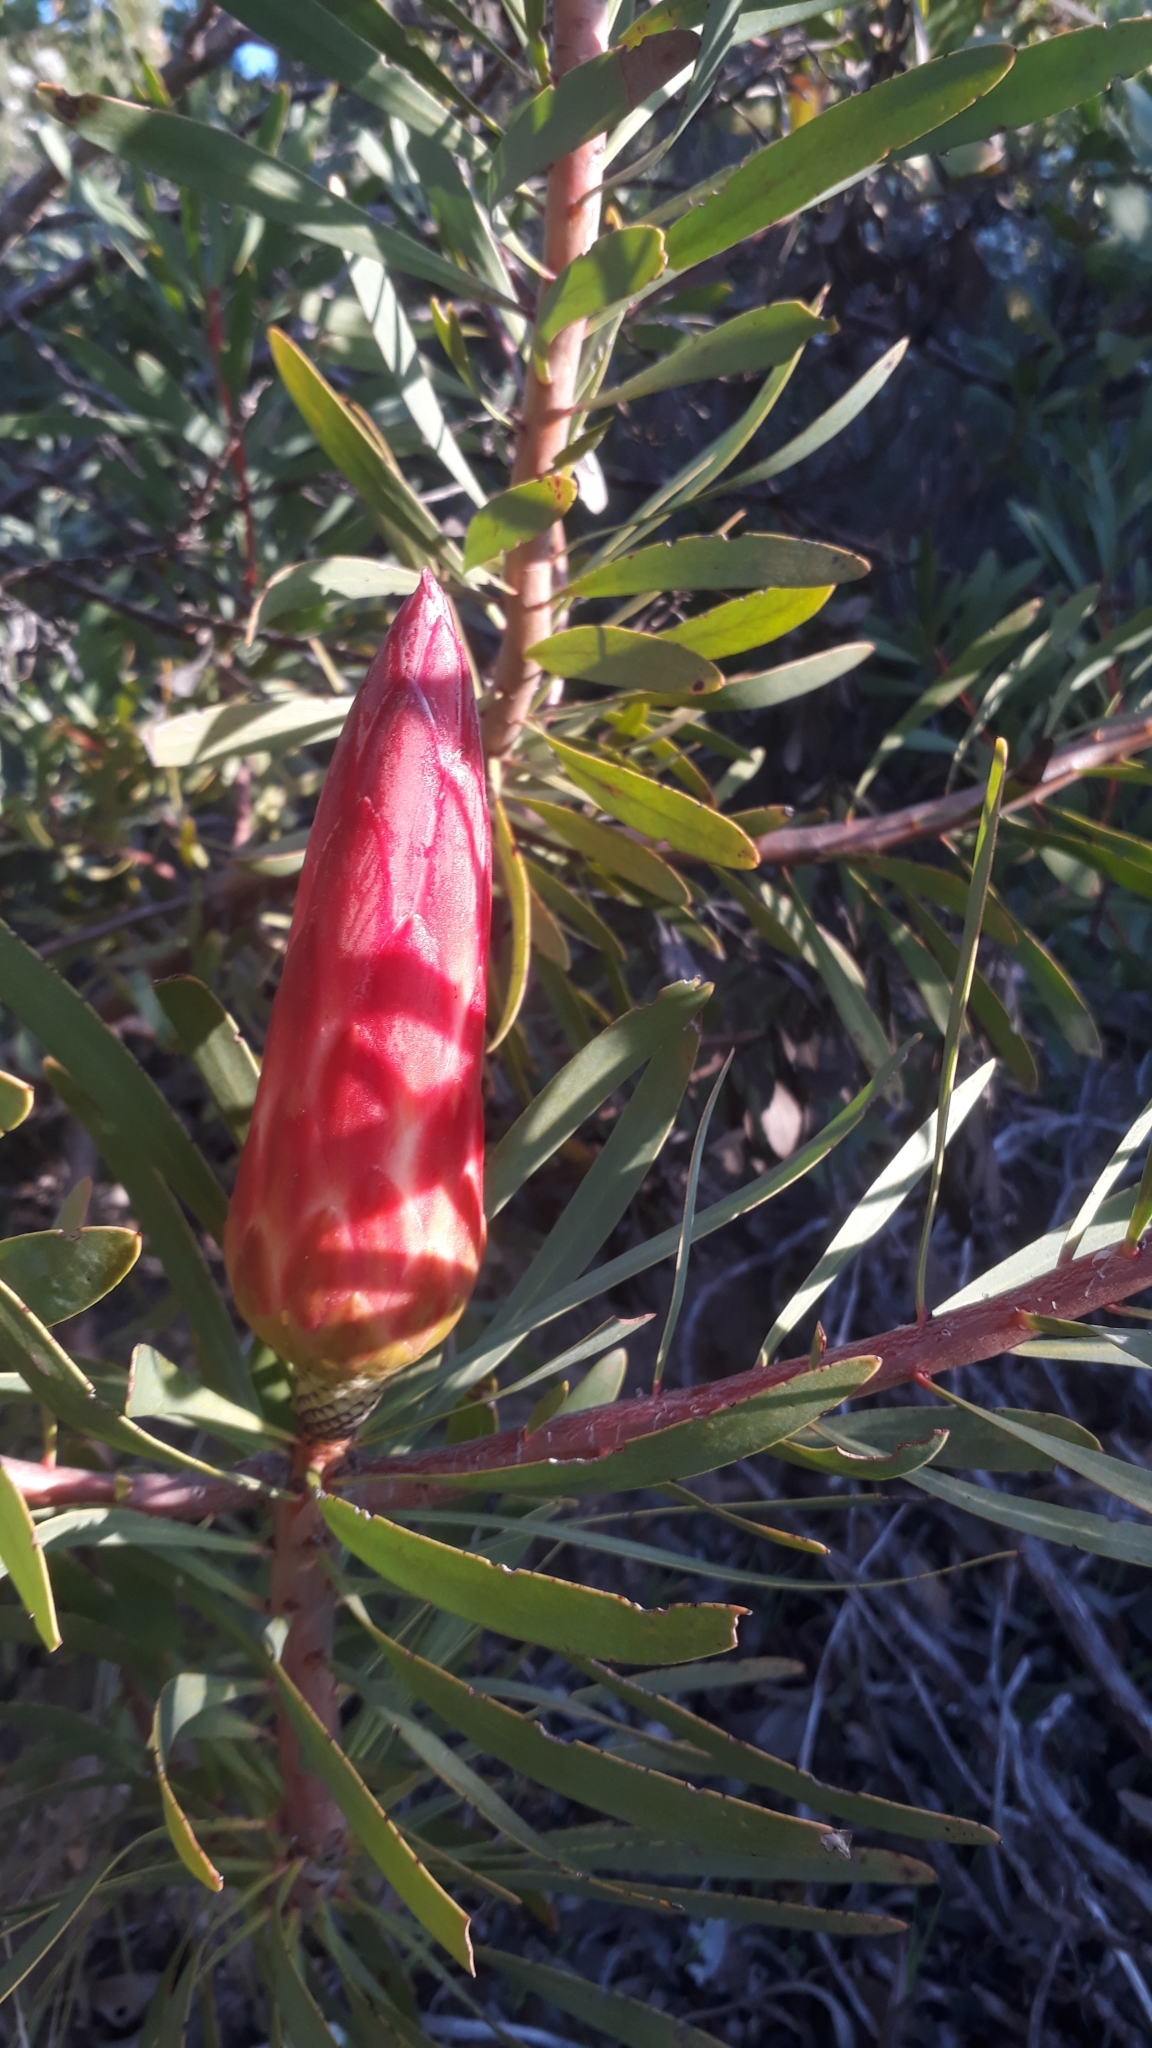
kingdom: Plantae
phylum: Tracheophyta
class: Magnoliopsida
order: Proteales
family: Proteaceae
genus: Protea
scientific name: Protea repens
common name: Sugarbush
